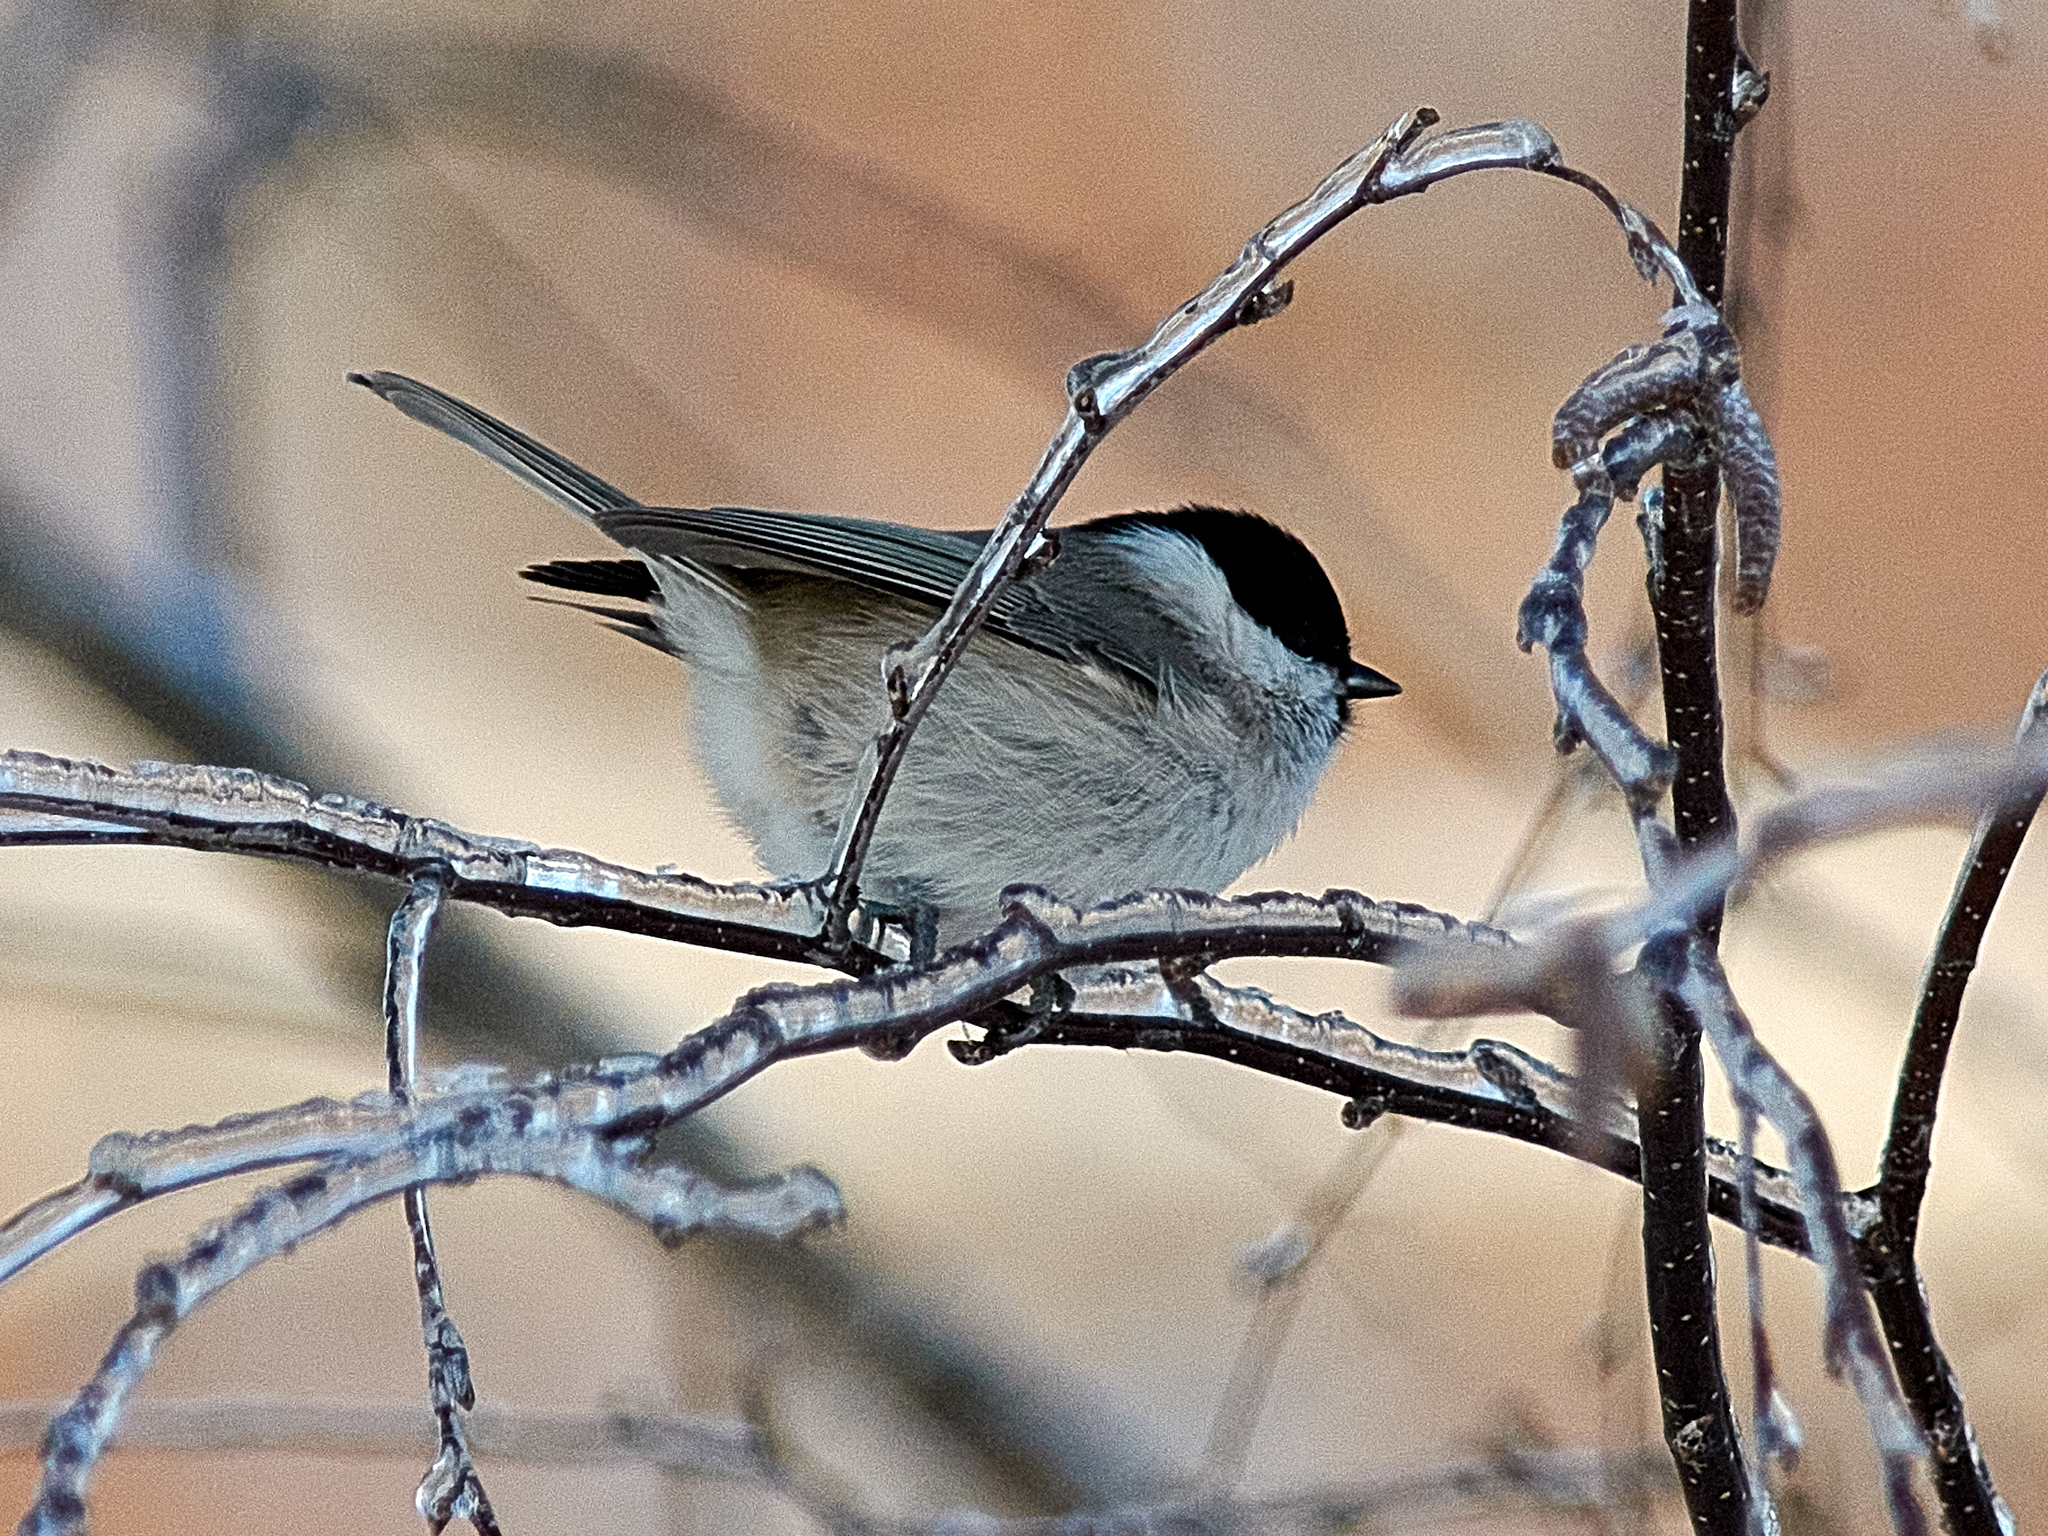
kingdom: Animalia
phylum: Chordata
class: Aves
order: Passeriformes
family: Paridae
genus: Poecile
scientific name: Poecile palustris
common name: Marsh tit
